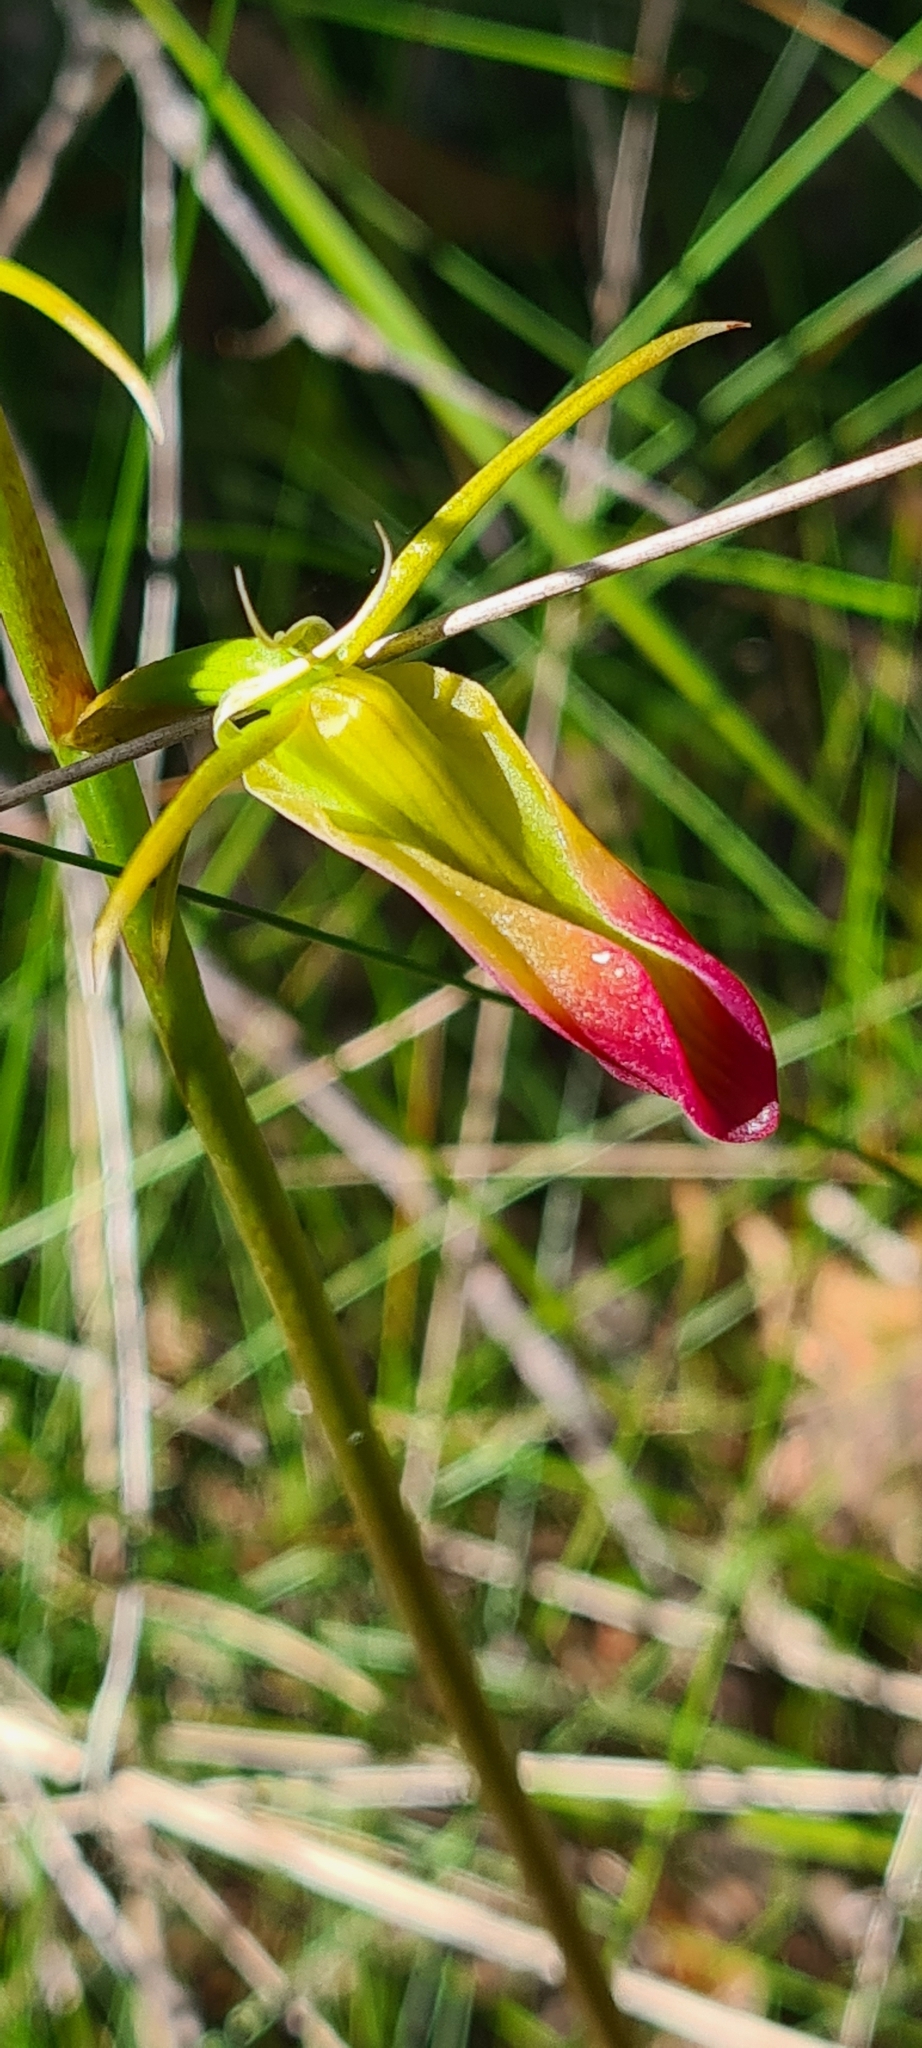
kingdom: Plantae
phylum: Tracheophyta
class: Liliopsida
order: Asparagales
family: Orchidaceae
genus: Cryptostylis
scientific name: Cryptostylis subulata
